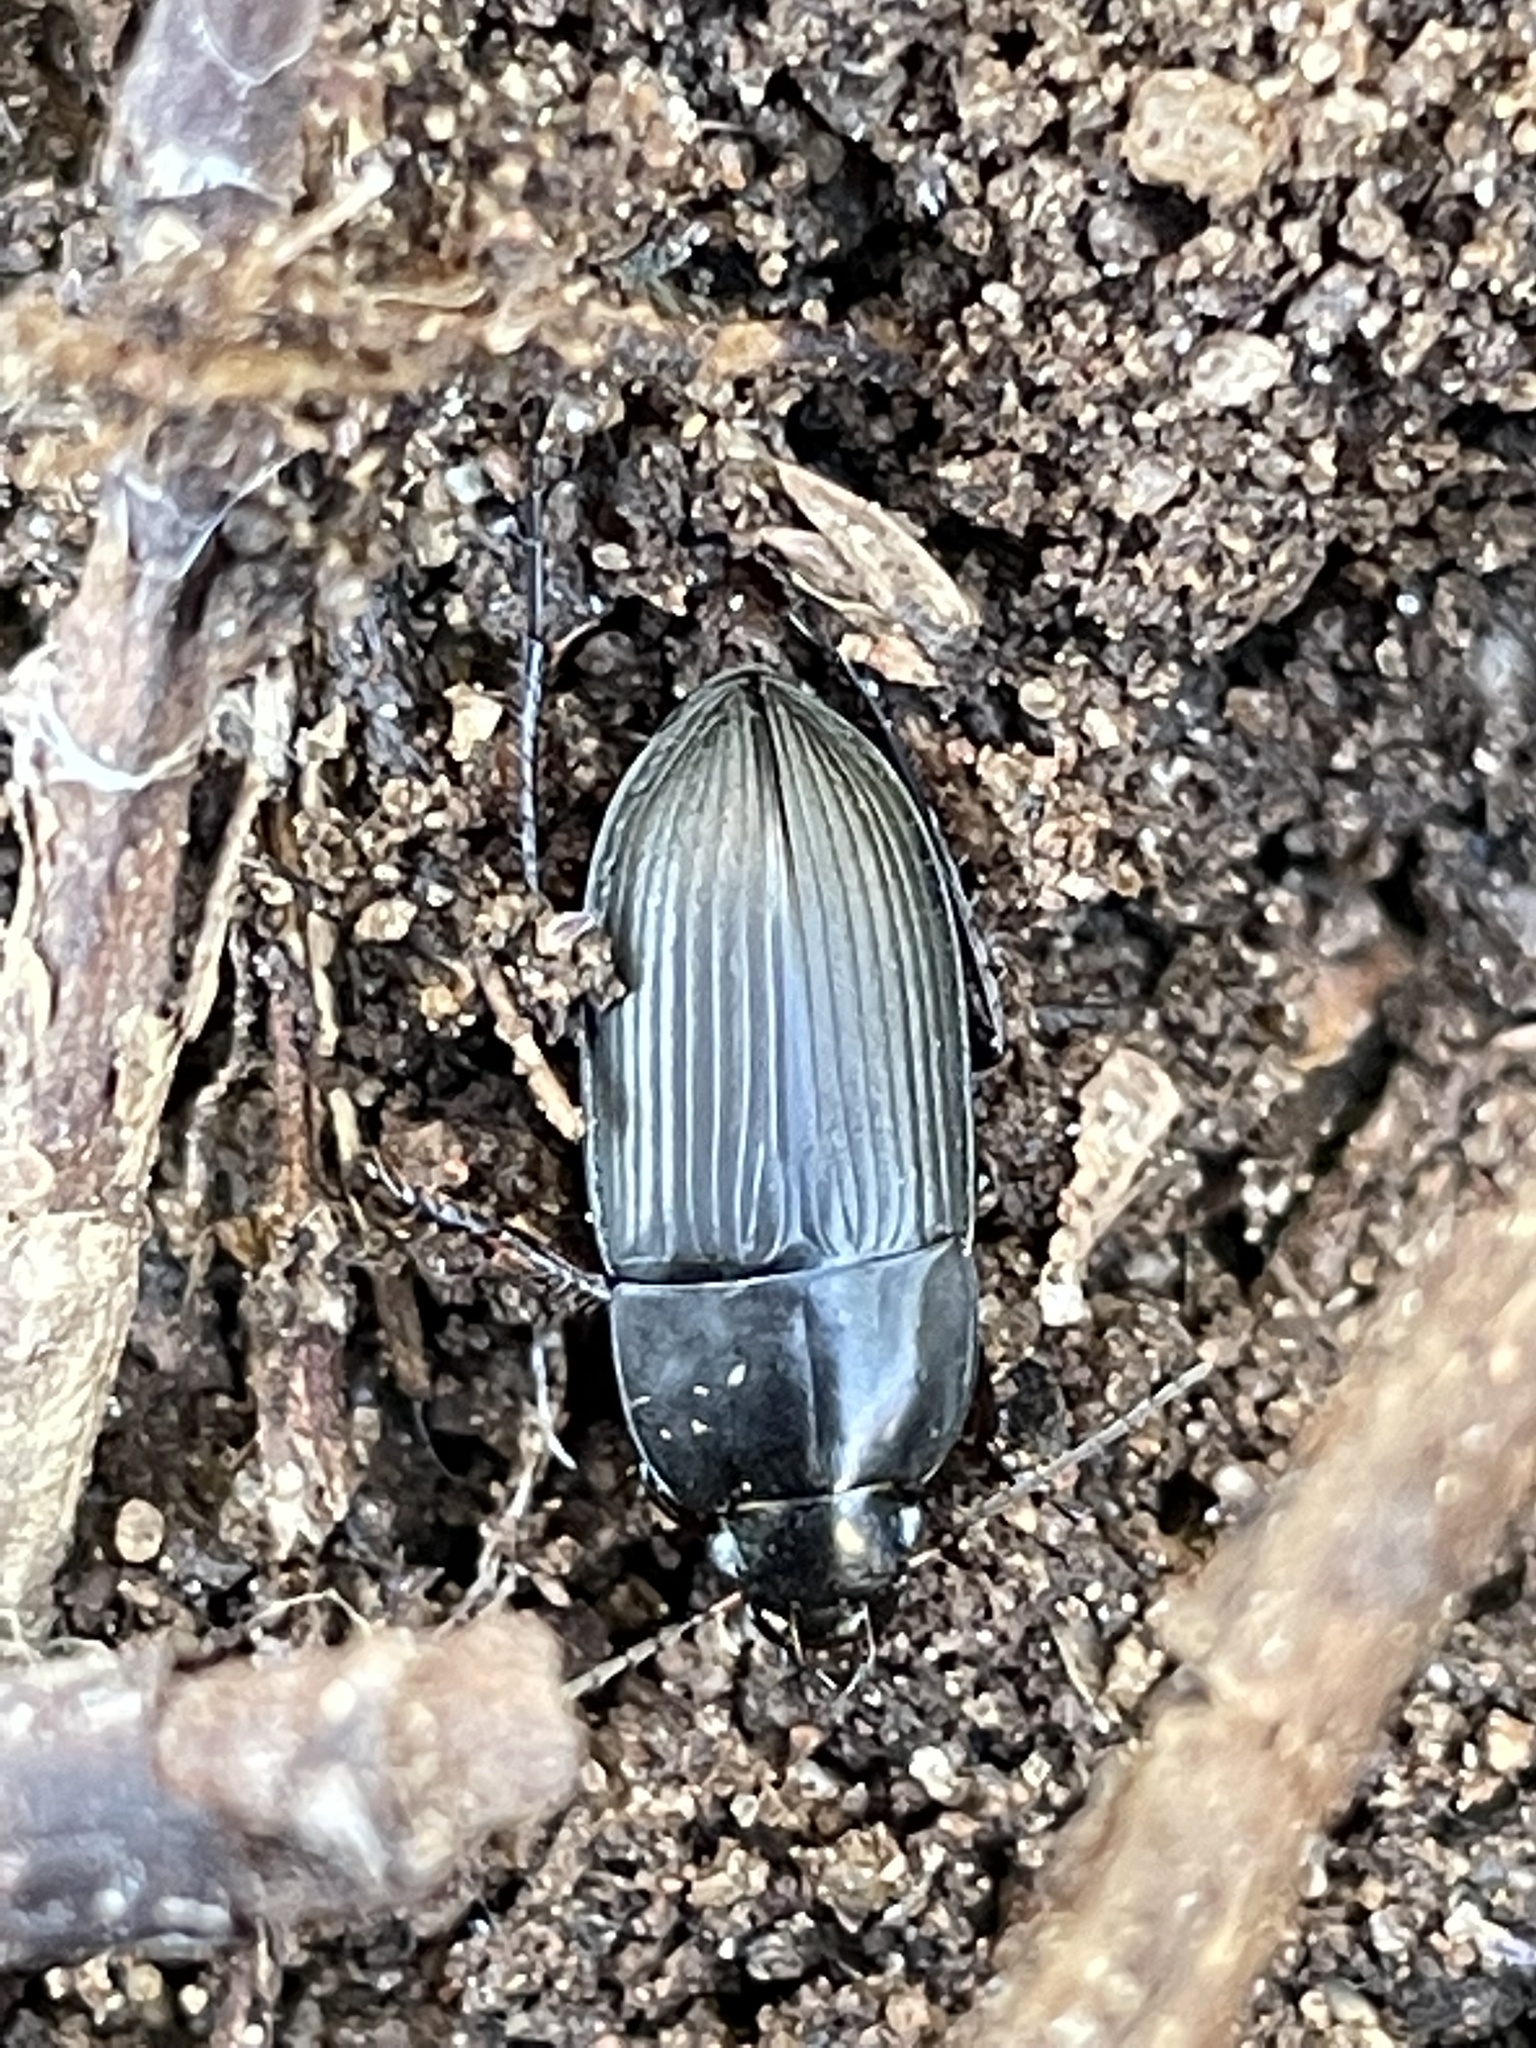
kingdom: Animalia
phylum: Arthropoda
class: Insecta
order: Coleoptera
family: Carabidae
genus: Anisodactylus
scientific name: Anisodactylus rusticus
